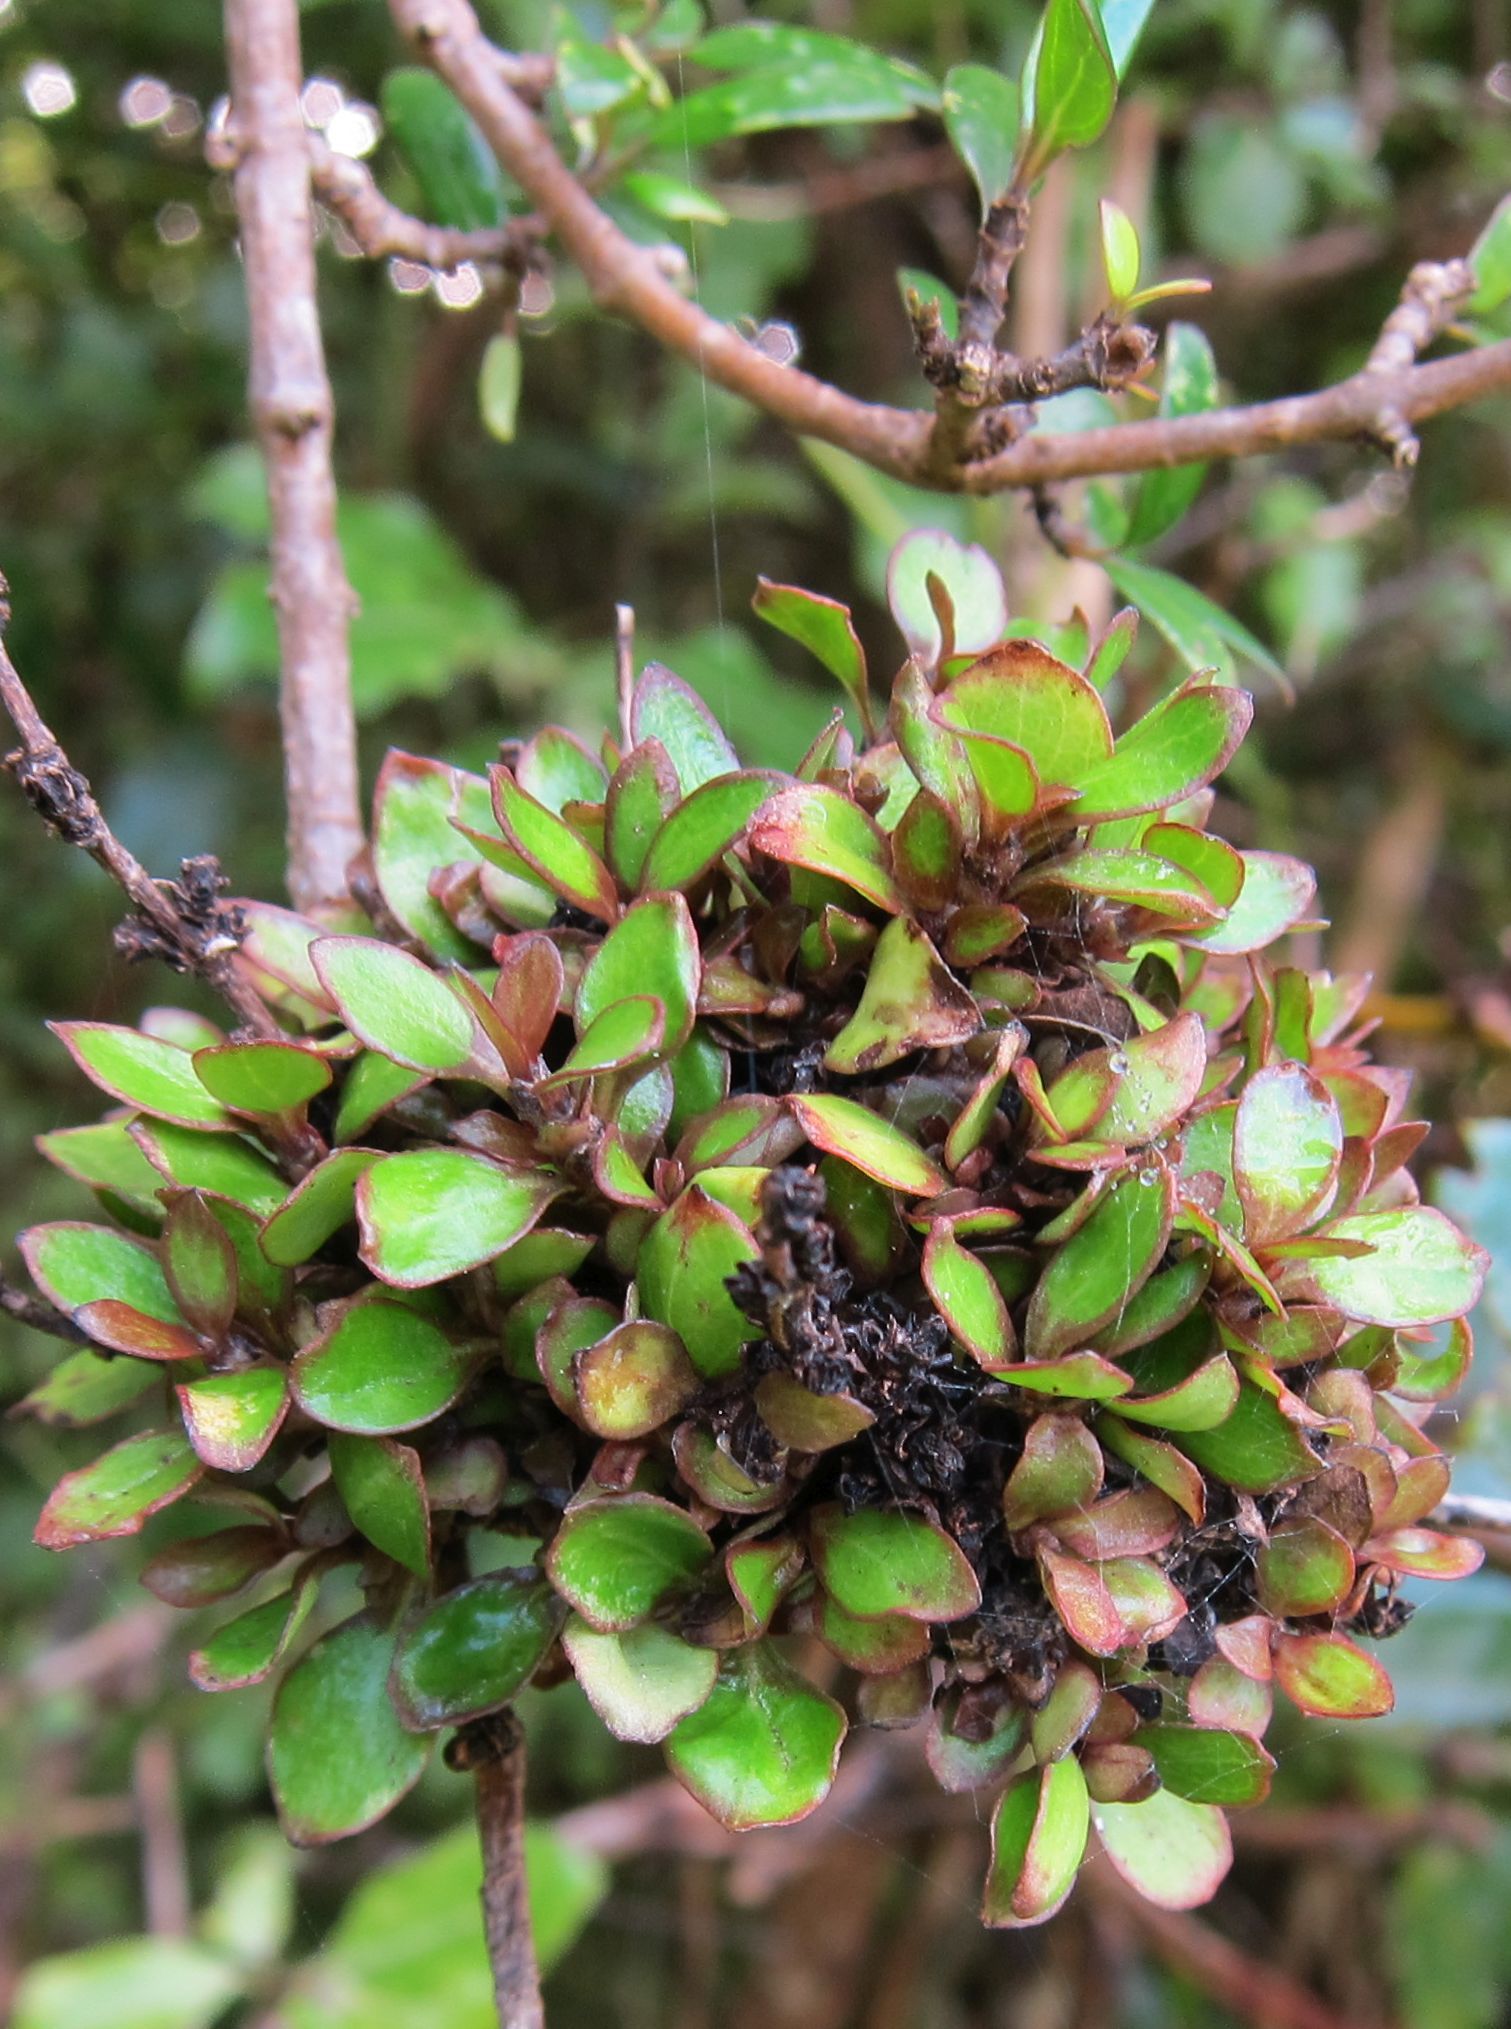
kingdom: Plantae
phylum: Tracheophyta
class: Magnoliopsida
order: Gentianales
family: Rubiaceae
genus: Coprosma
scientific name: Coprosma propinqua
